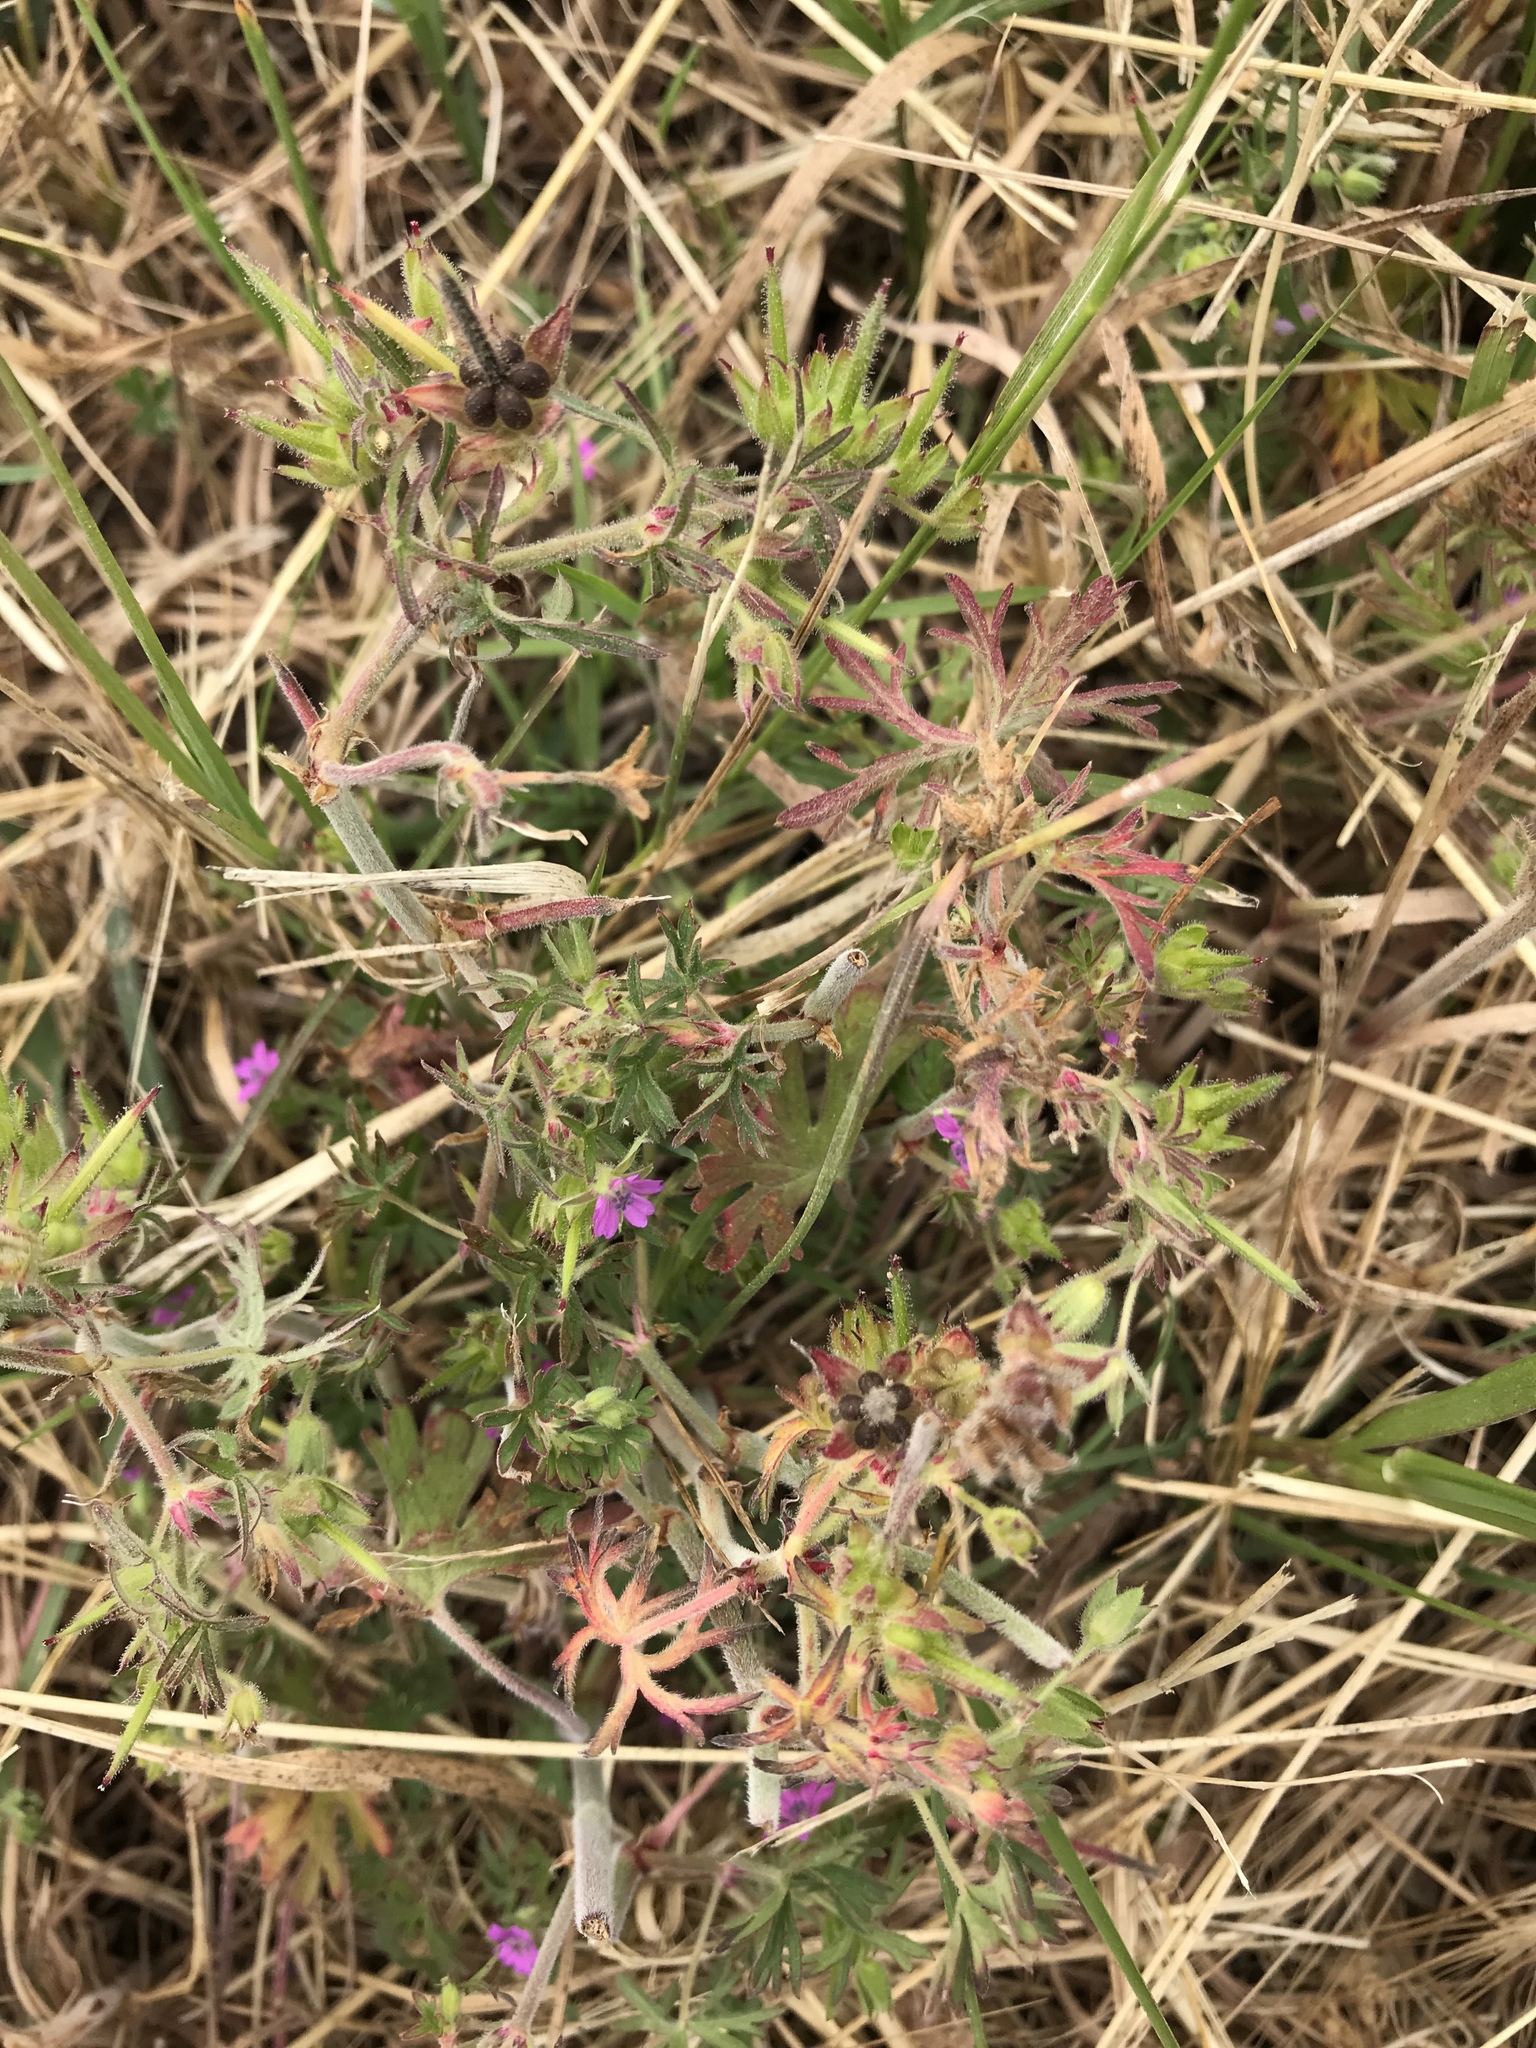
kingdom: Plantae
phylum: Tracheophyta
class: Magnoliopsida
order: Geraniales
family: Geraniaceae
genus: Geranium
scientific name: Geranium dissectum
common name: Cut-leaved crane's-bill
